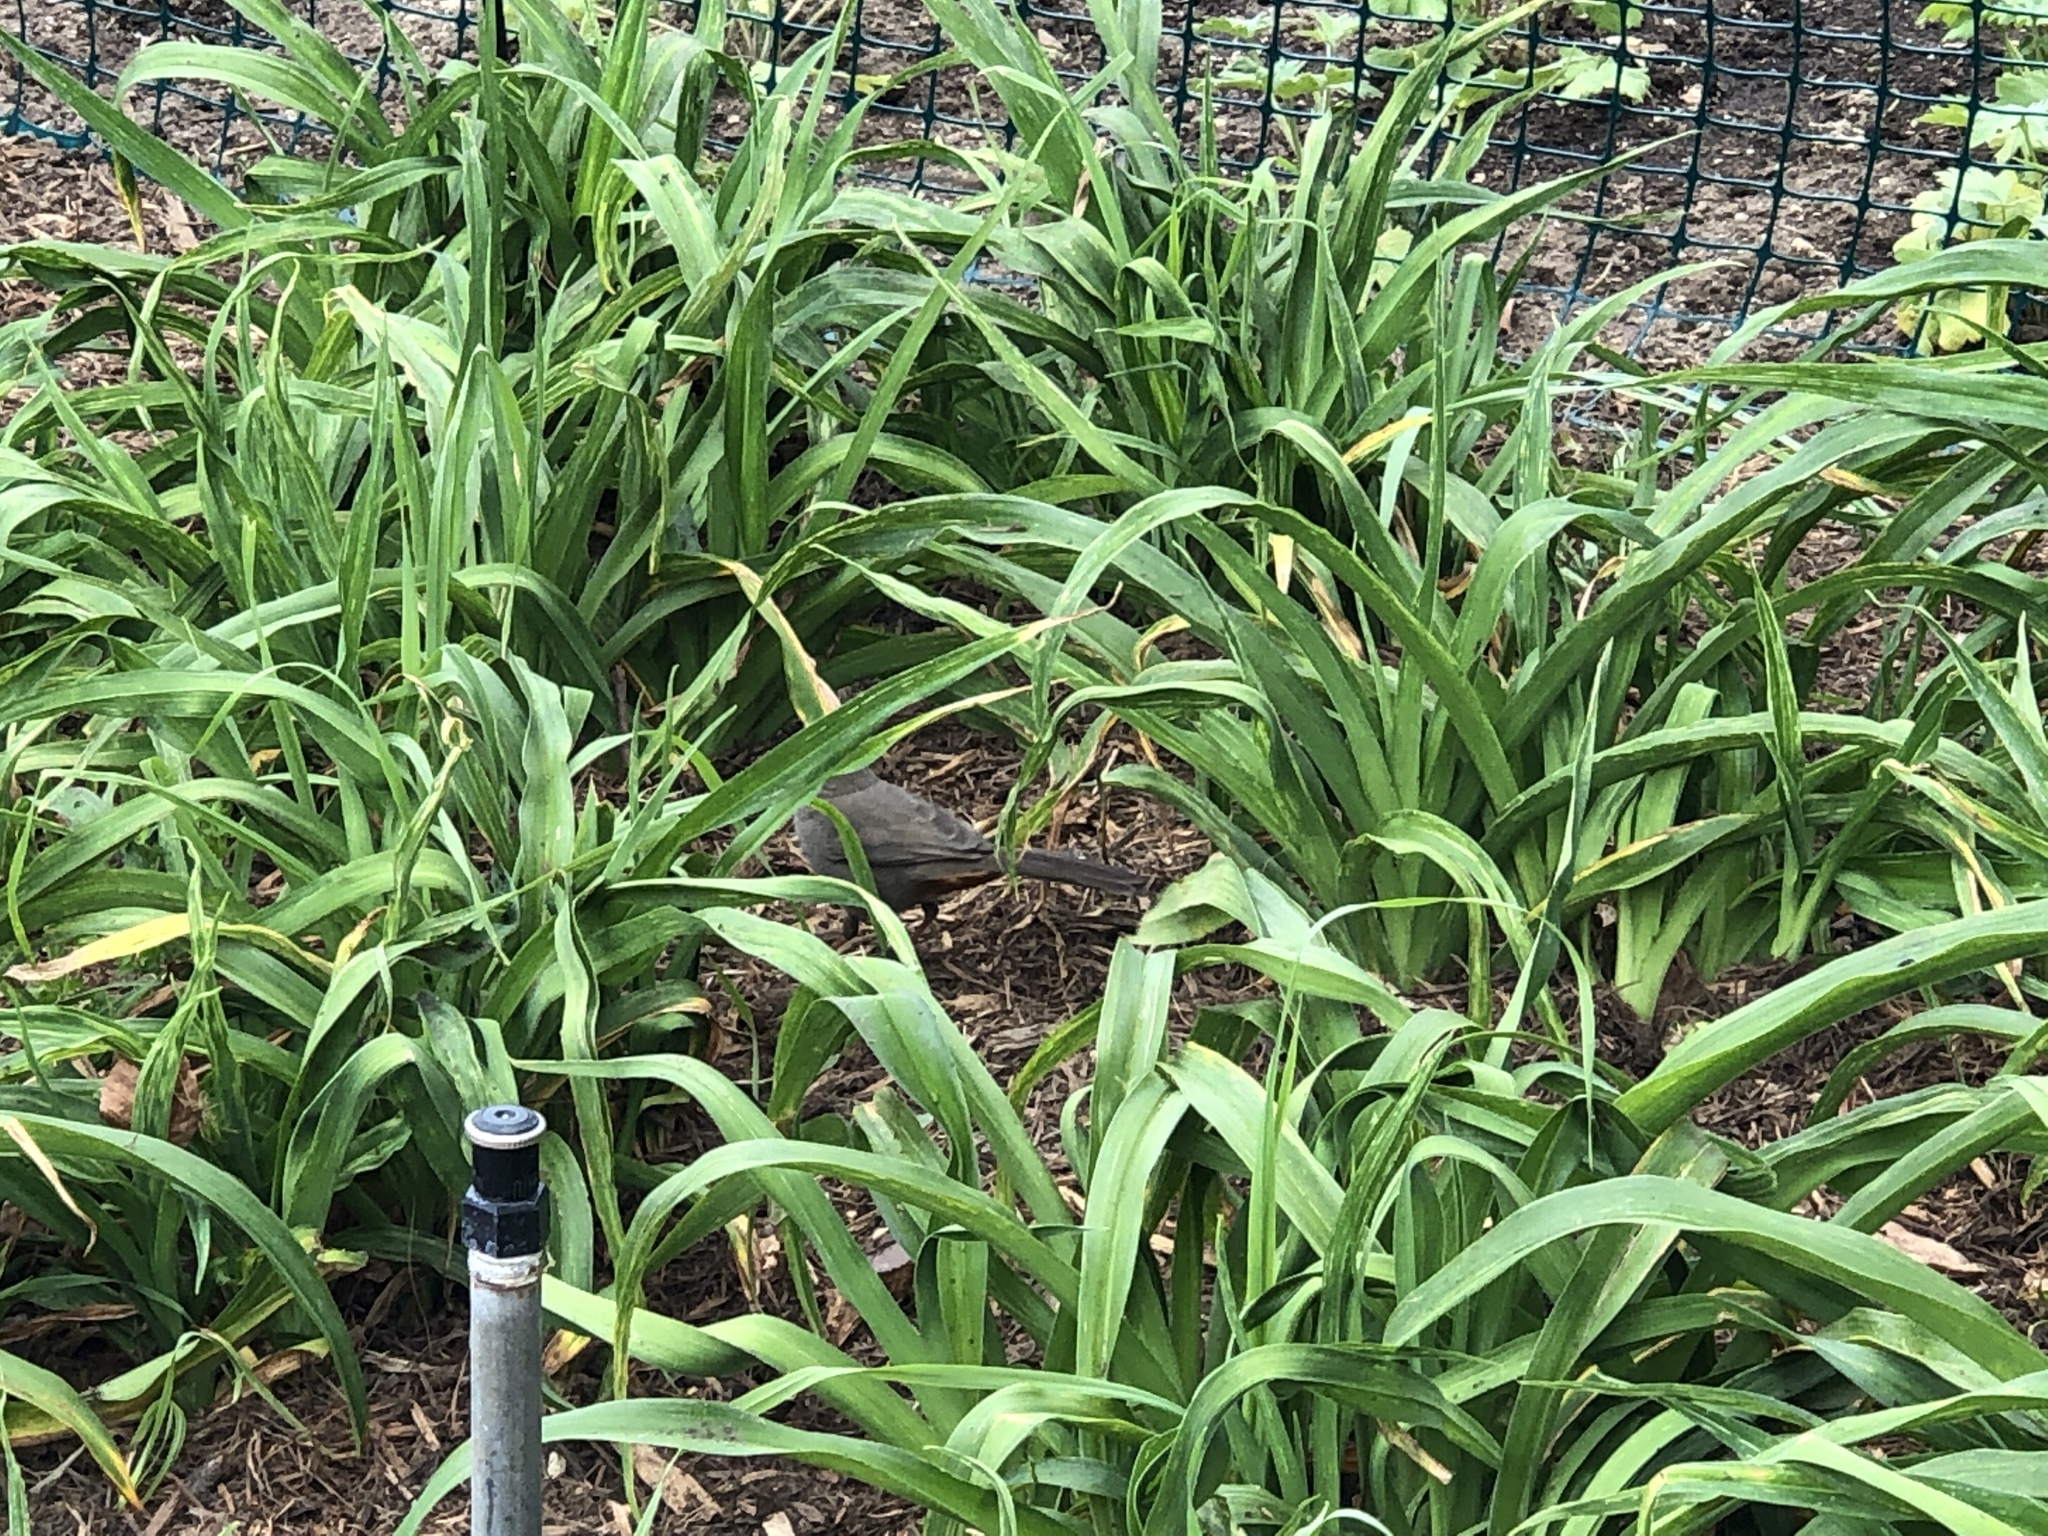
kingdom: Animalia
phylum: Chordata
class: Aves
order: Passeriformes
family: Passerellidae
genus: Melozone
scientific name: Melozone crissalis
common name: California towhee
